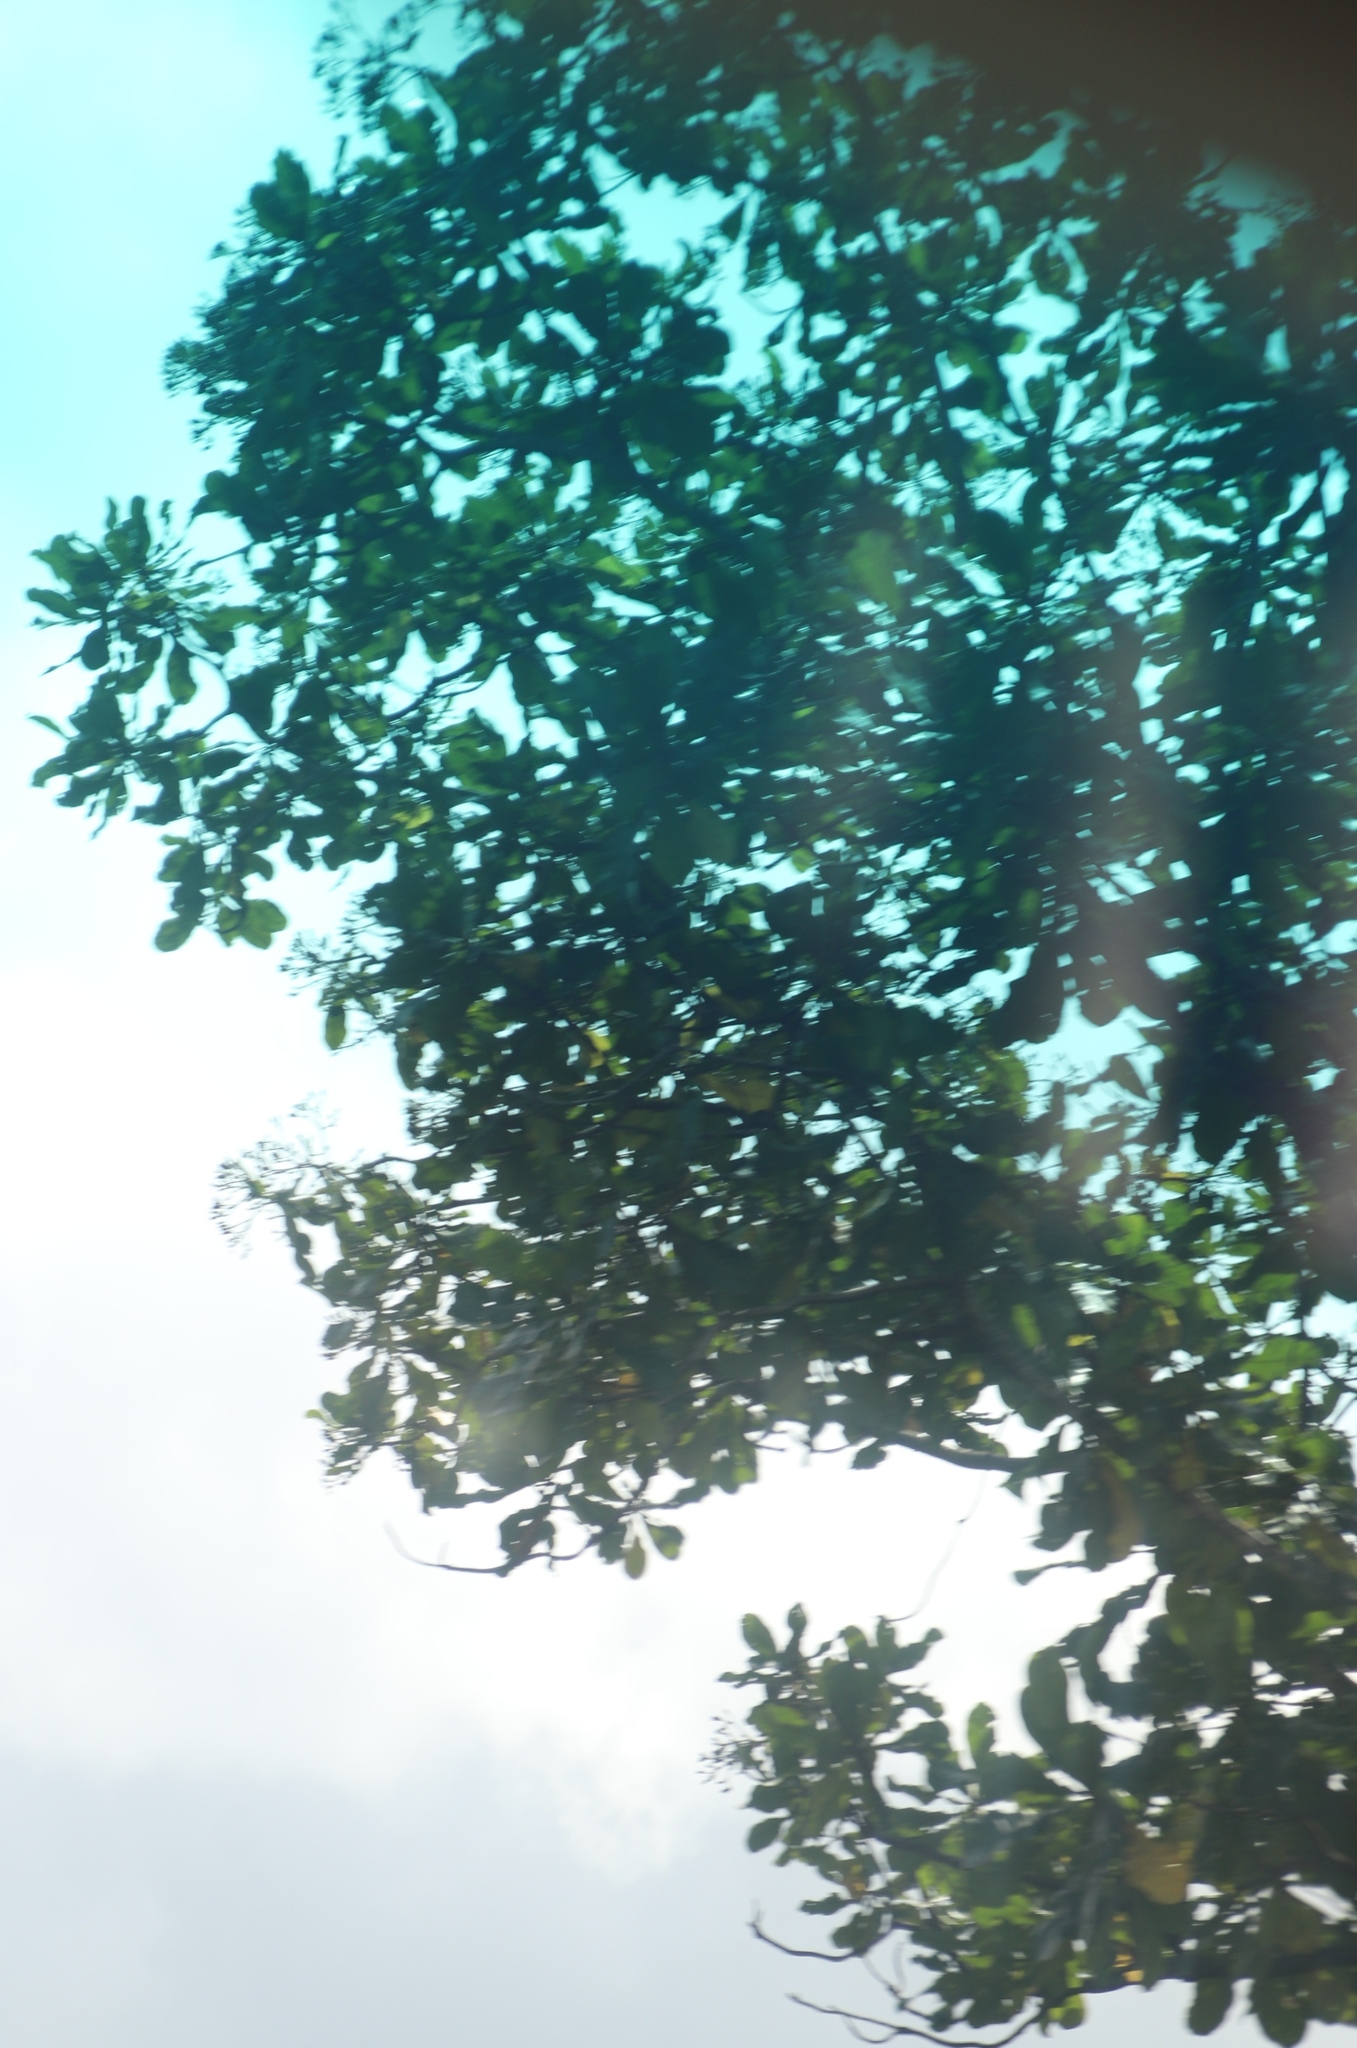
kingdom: Plantae
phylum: Tracheophyta
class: Magnoliopsida
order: Gentianales
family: Gentianaceae
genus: Anthocleista
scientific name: Anthocleista grandiflora
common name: Forest big-leaf
